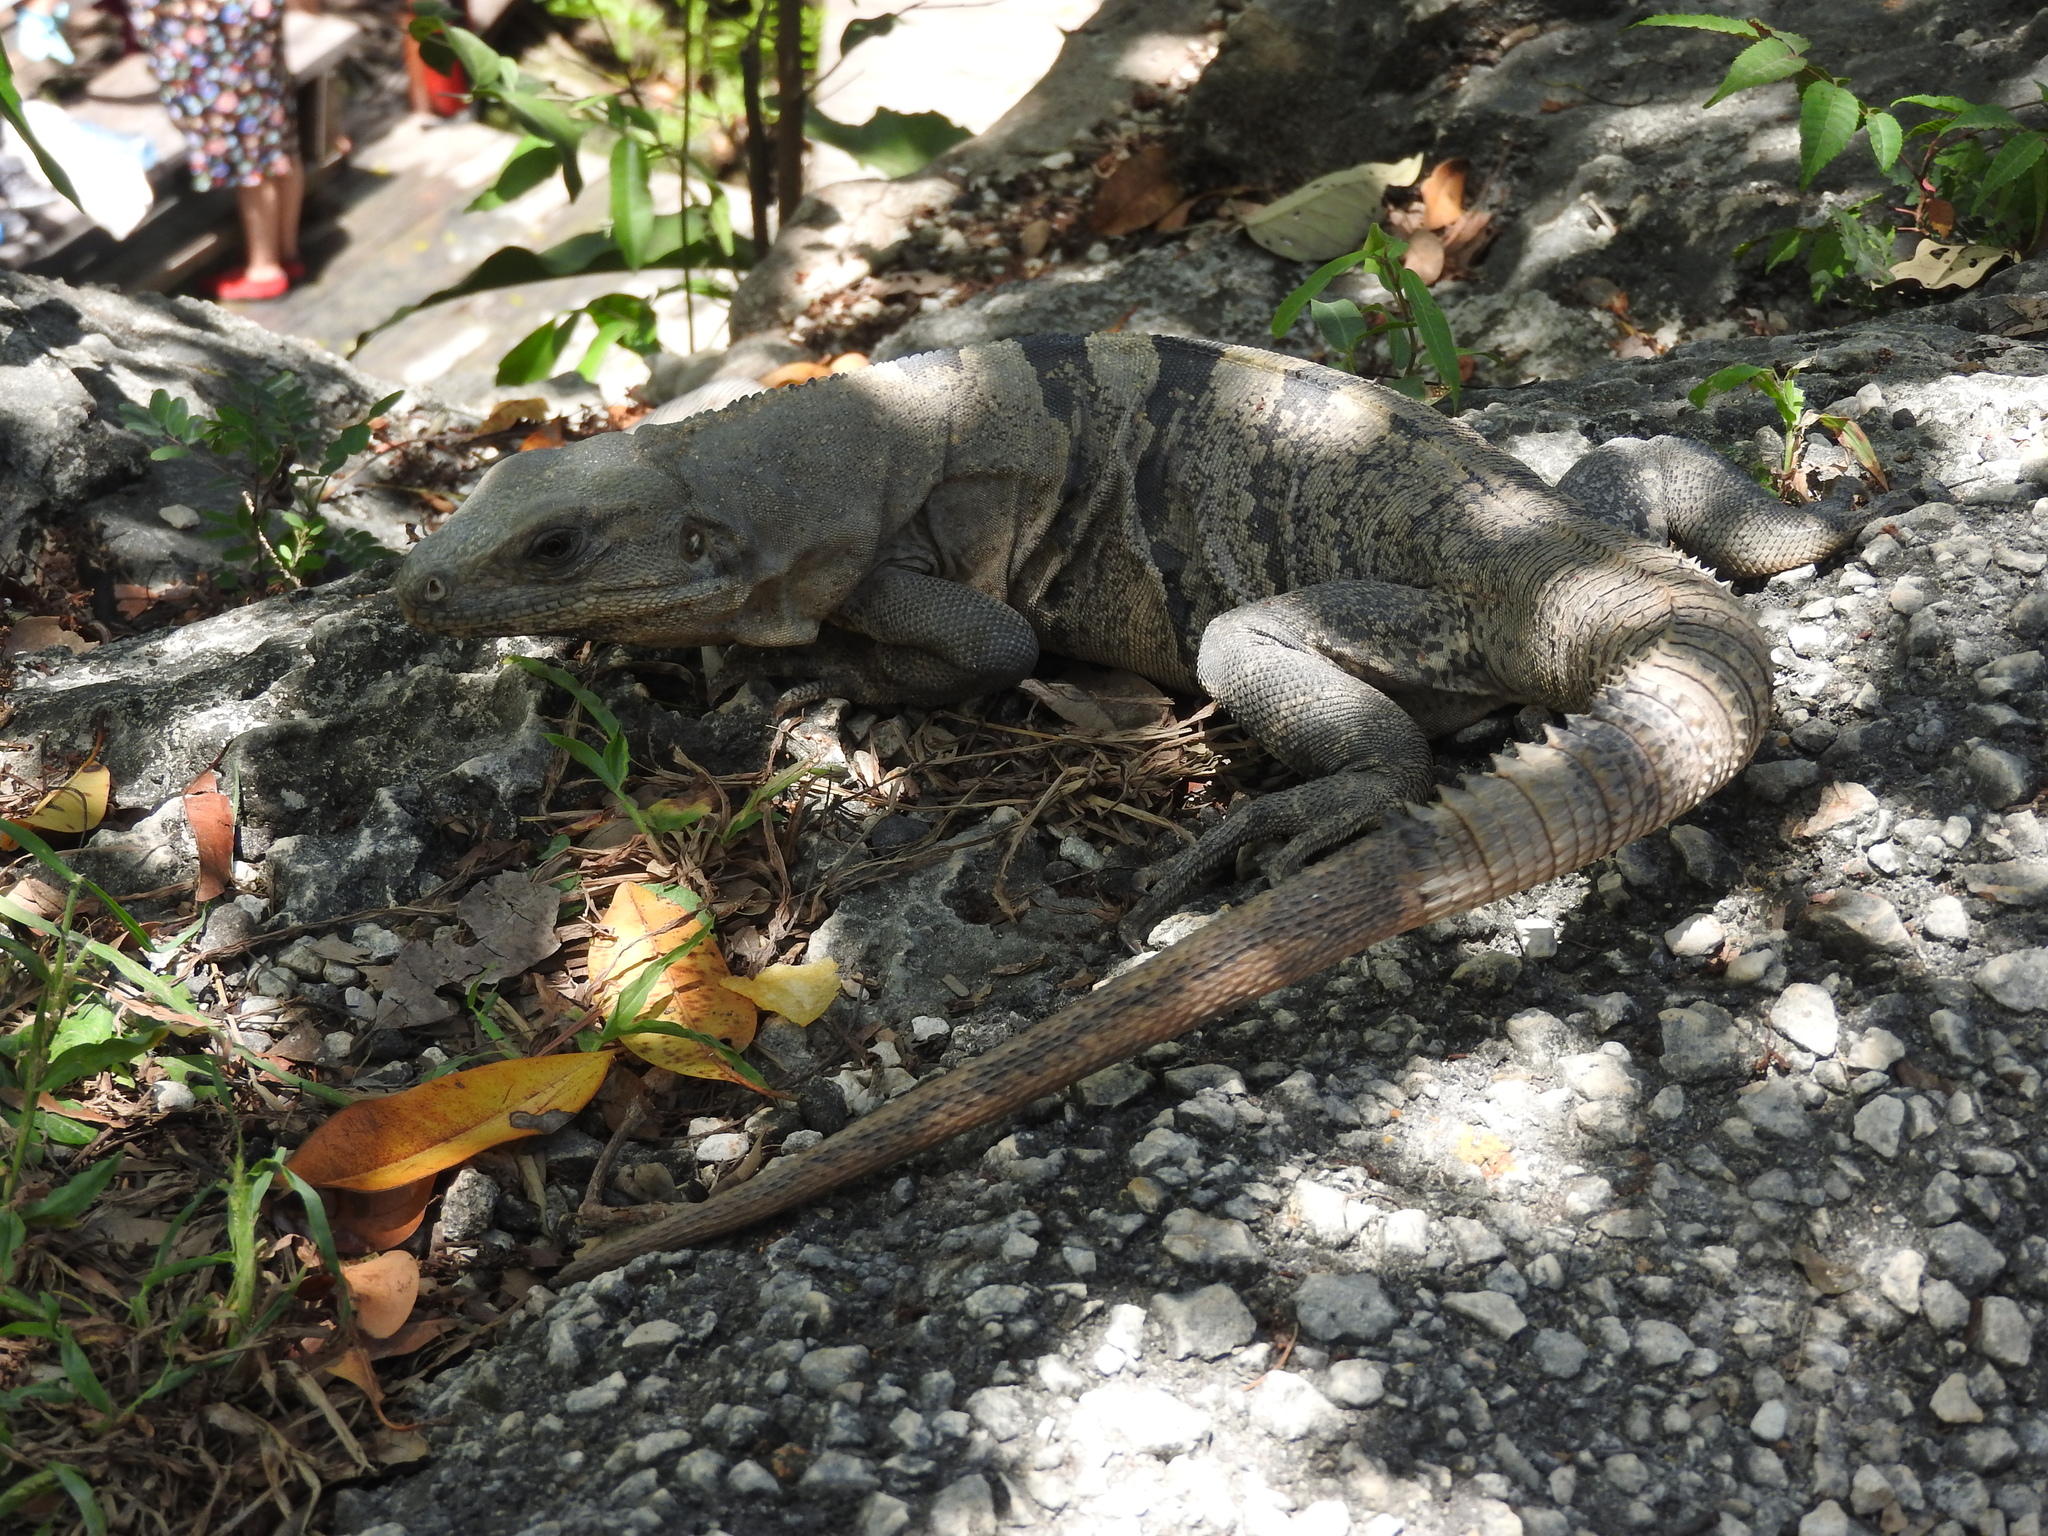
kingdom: Animalia
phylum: Chordata
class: Squamata
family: Iguanidae
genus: Ctenosaura
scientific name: Ctenosaura similis
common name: Black spiny-tailed iguana
